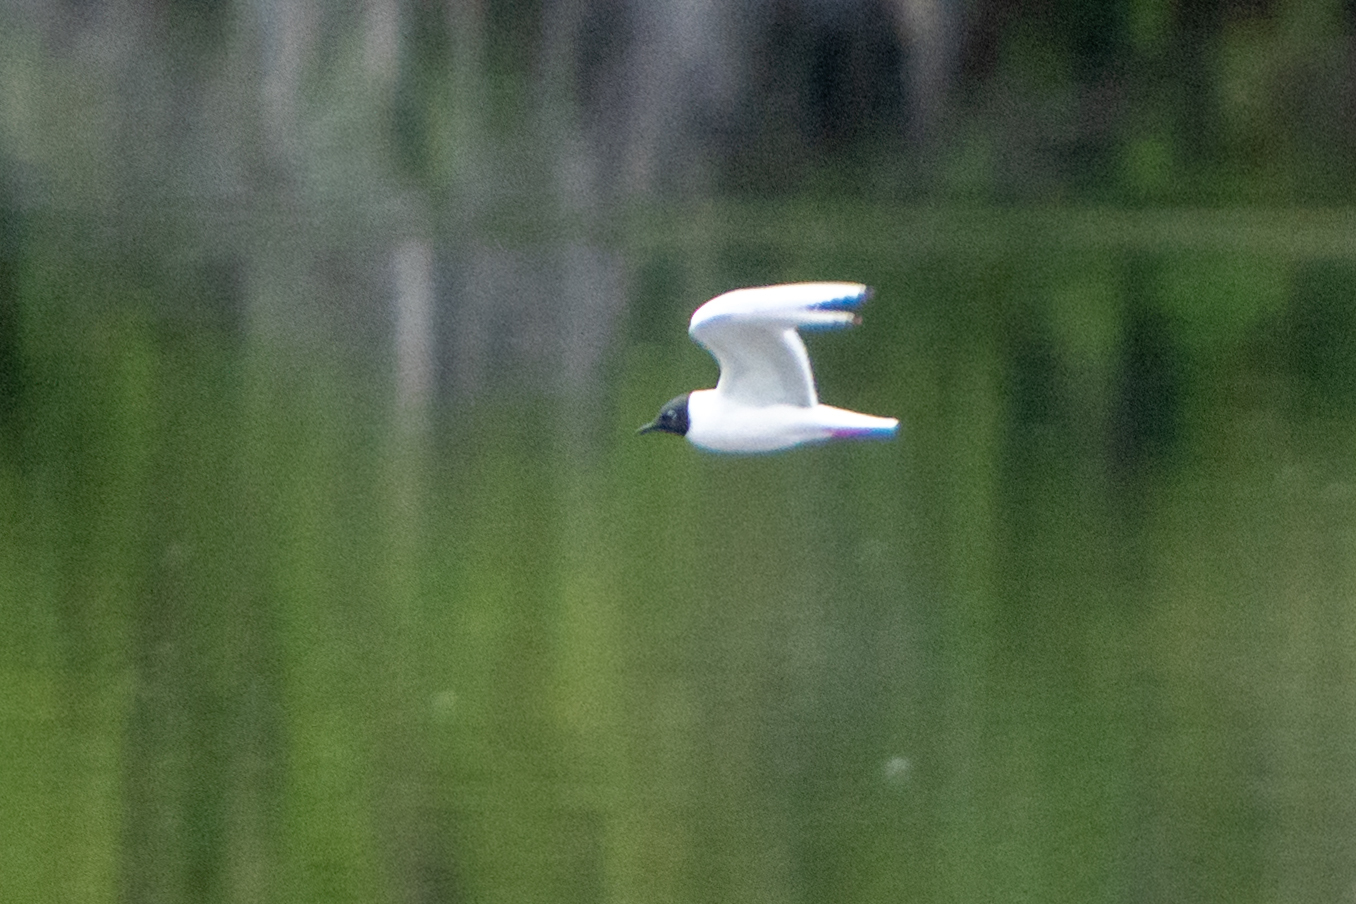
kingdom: Animalia
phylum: Chordata
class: Aves
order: Charadriiformes
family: Laridae
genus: Chroicocephalus
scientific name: Chroicocephalus philadelphia
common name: Bonaparte's gull
